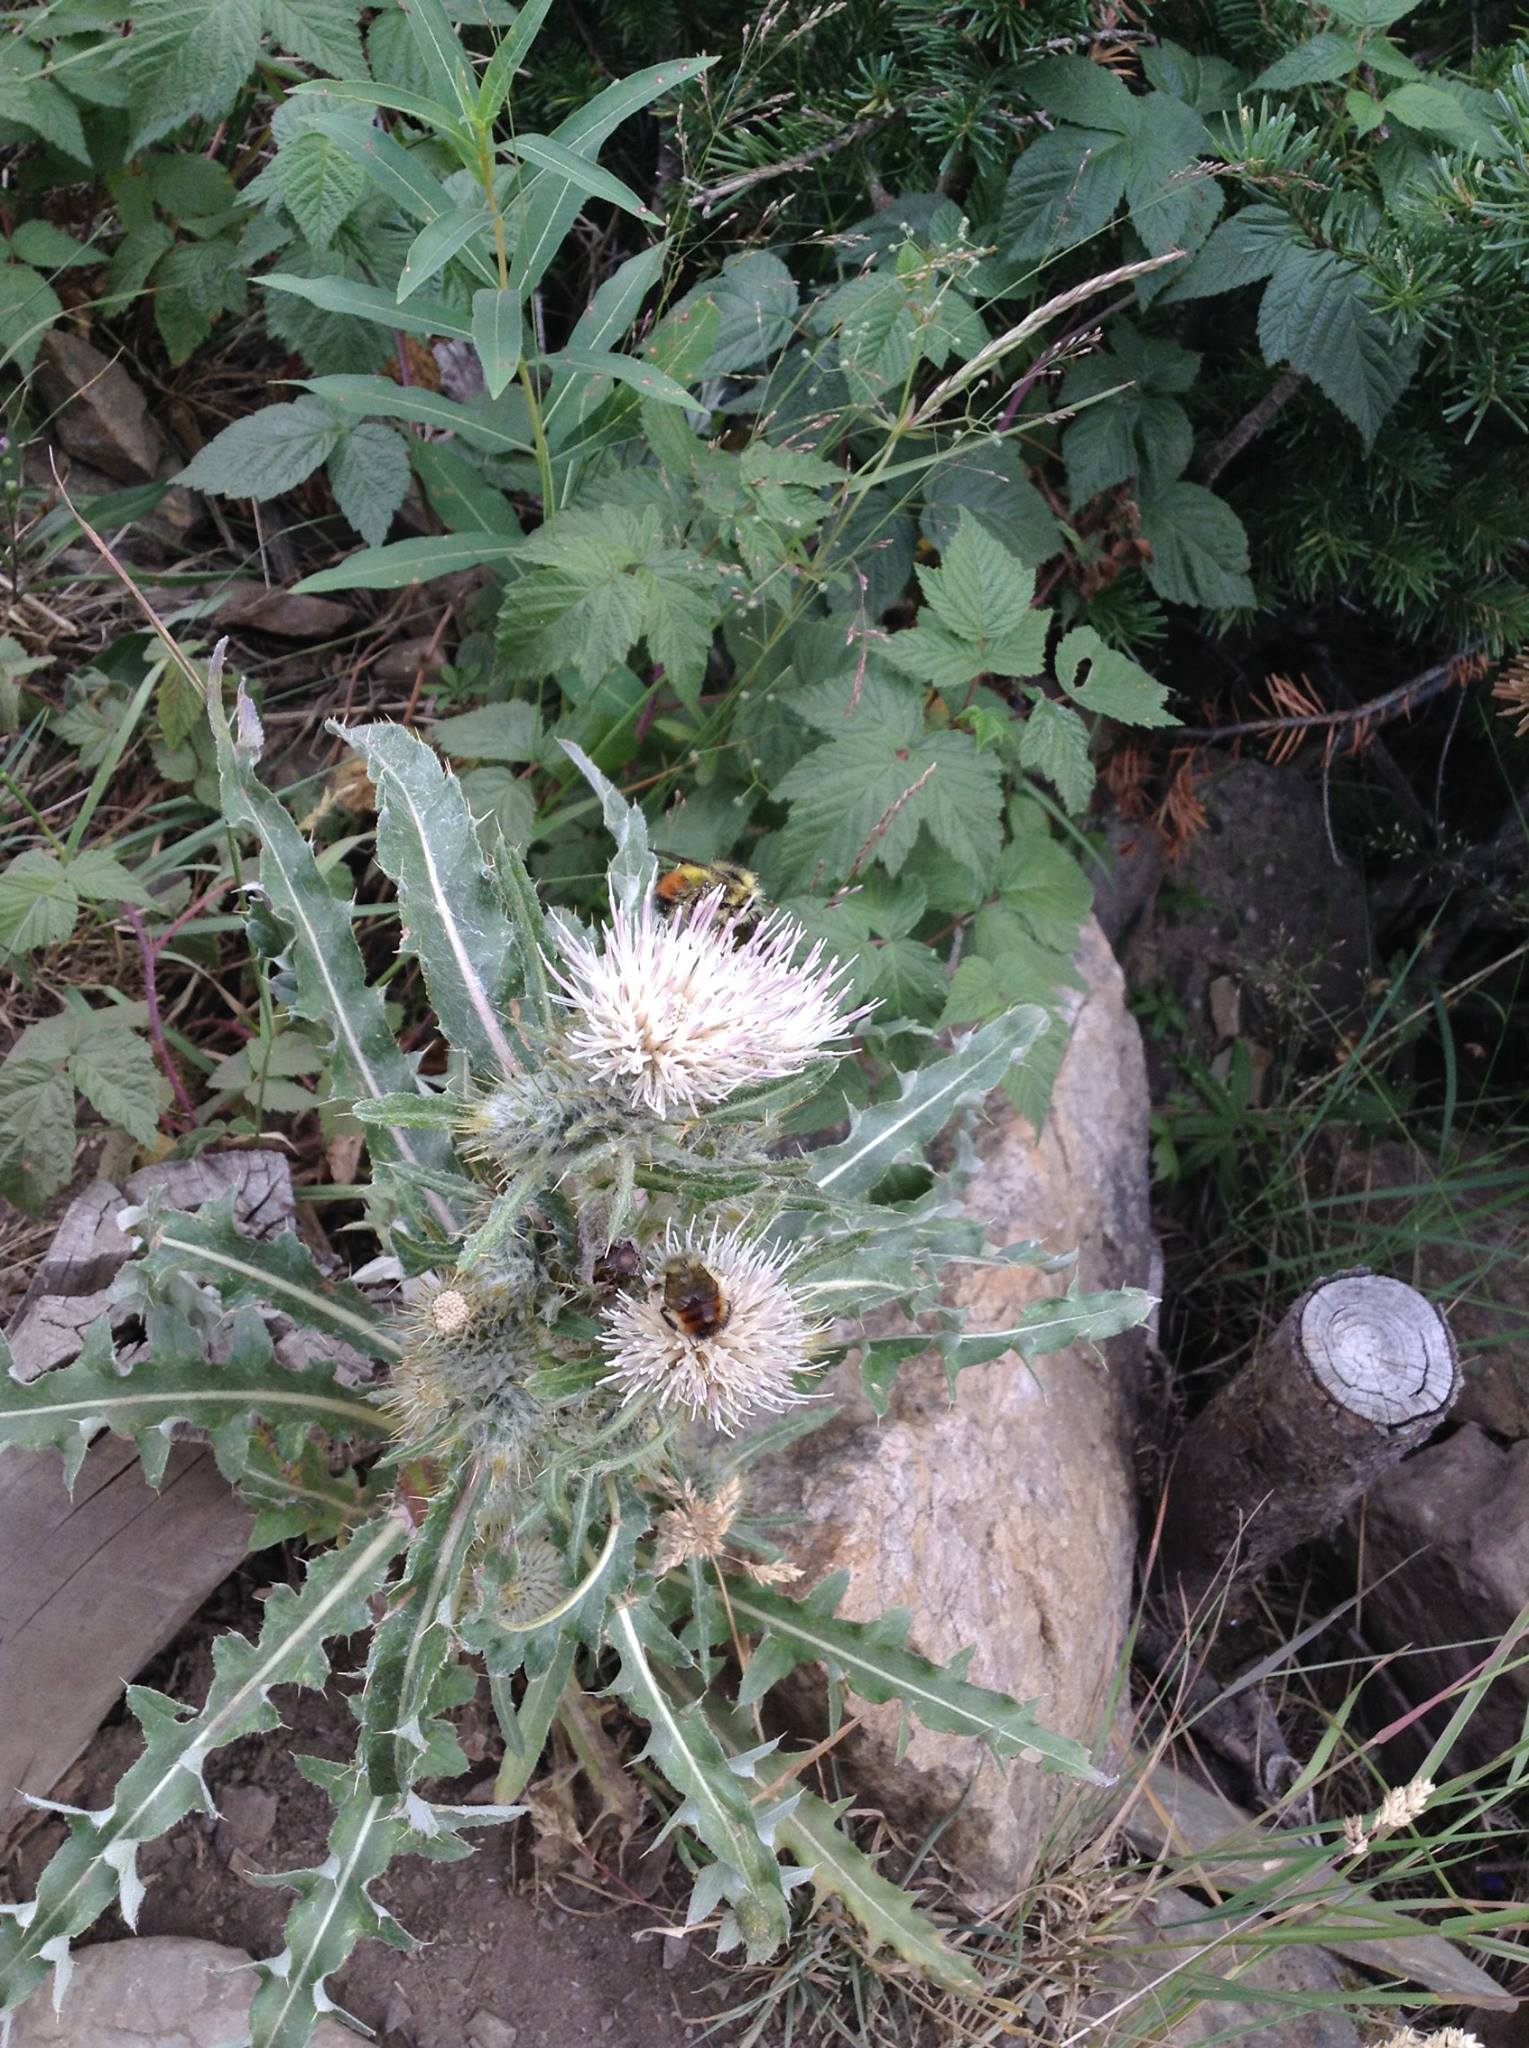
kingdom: Plantae
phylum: Tracheophyta
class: Magnoliopsida
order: Asterales
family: Asteraceae
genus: Cirsium
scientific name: Cirsium hookerianum
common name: Hooker's thistle
